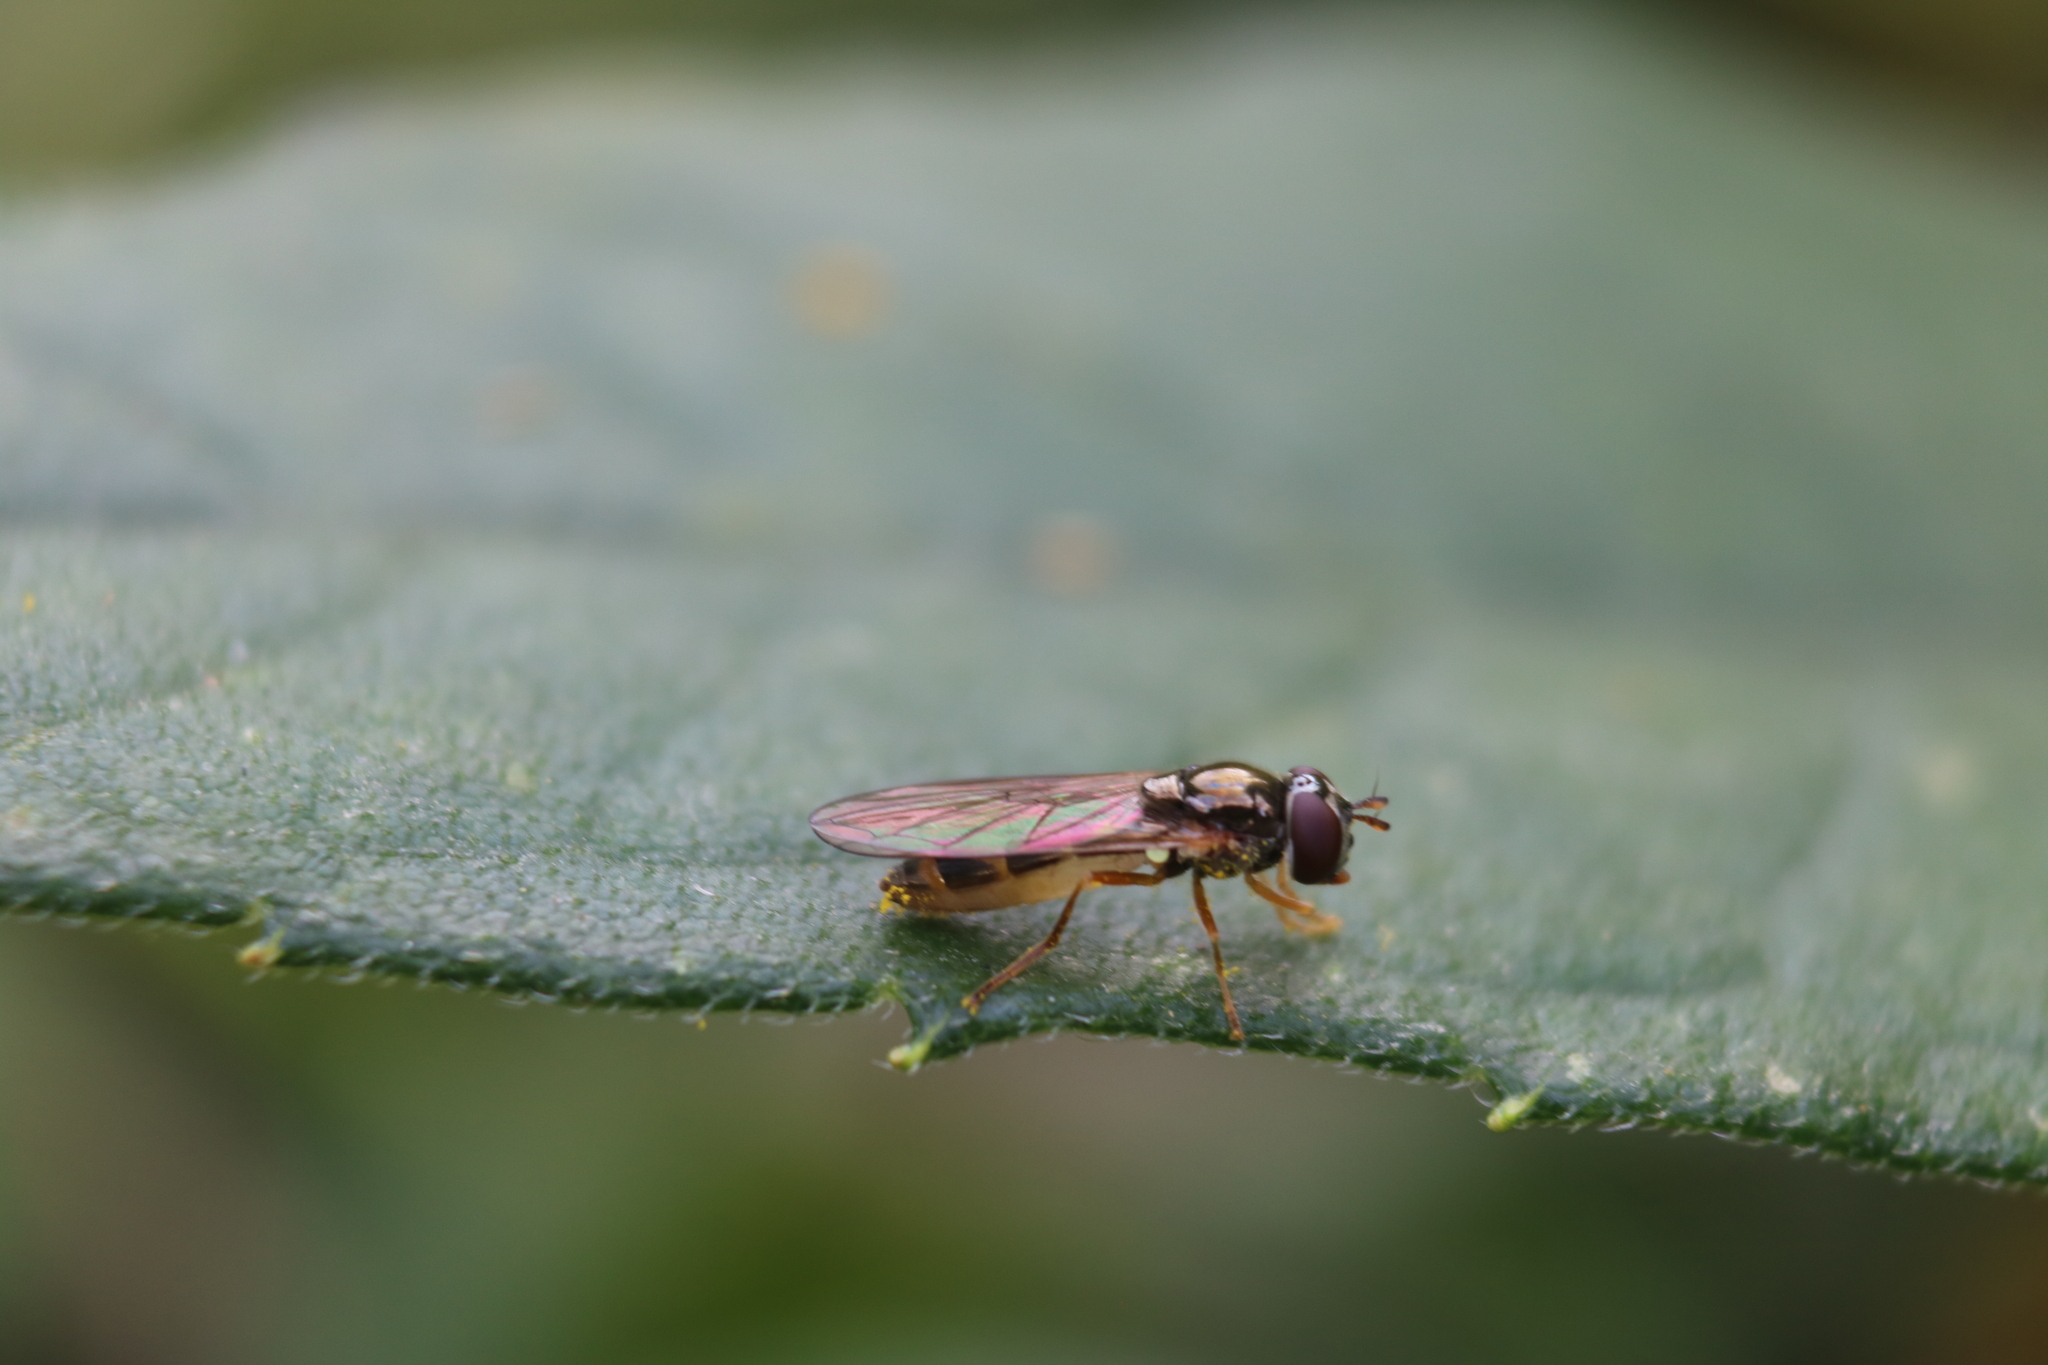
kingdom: Animalia
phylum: Arthropoda
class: Insecta
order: Diptera
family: Syrphidae
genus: Melanostoma
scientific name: Melanostoma mellina
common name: Hover fly
